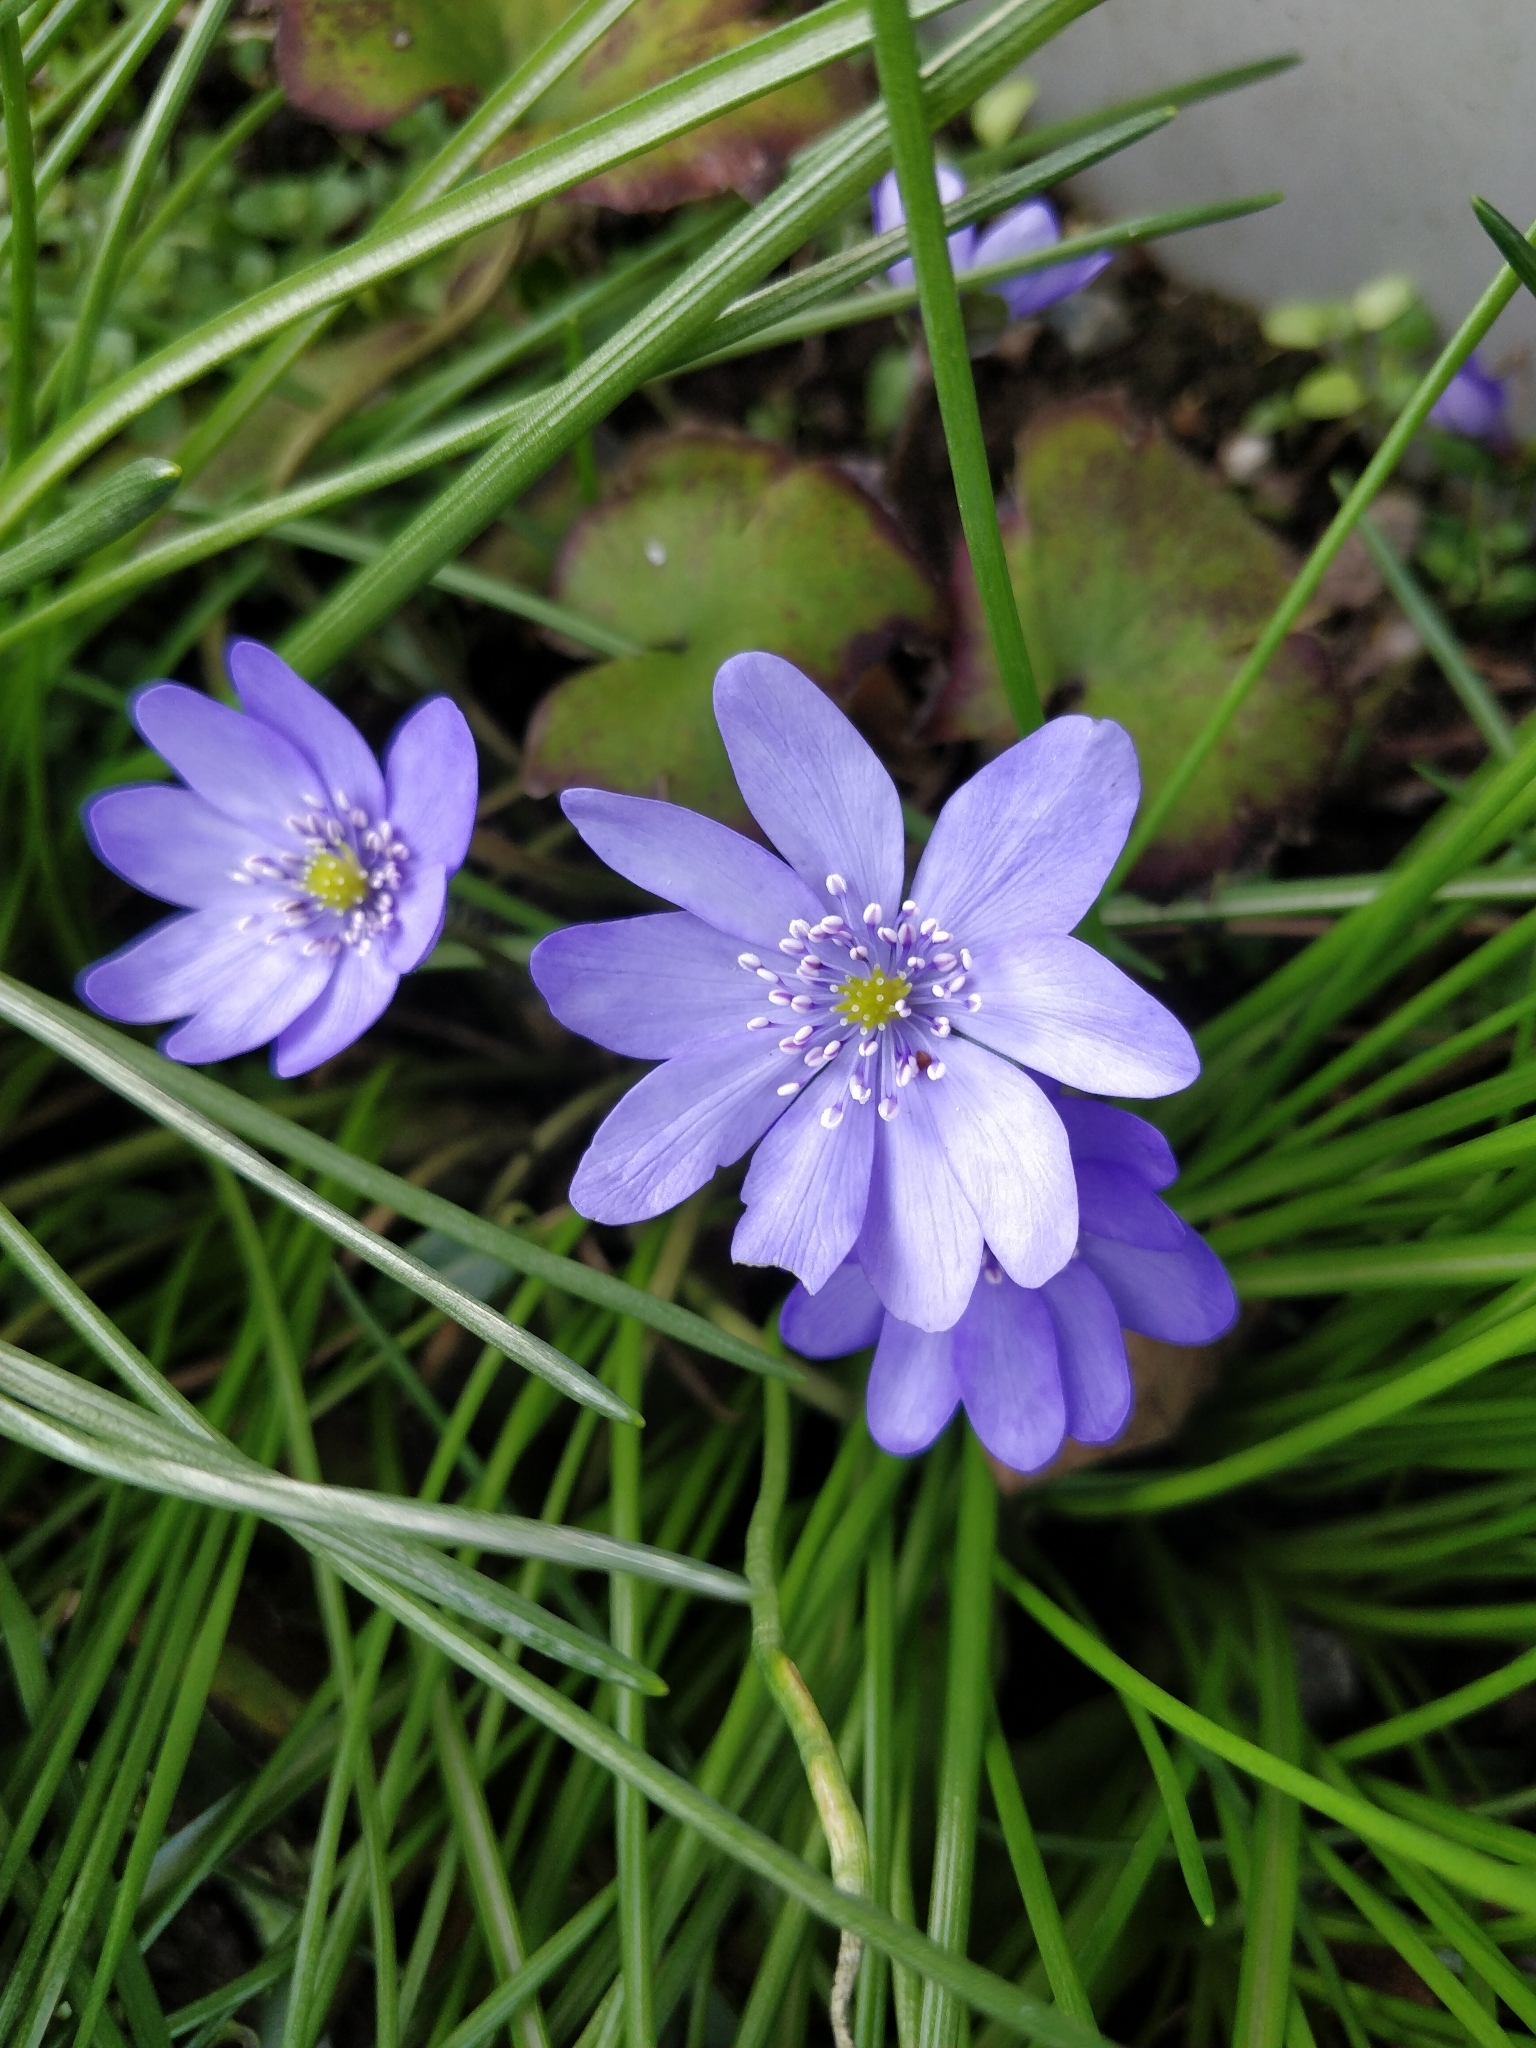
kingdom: Plantae
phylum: Tracheophyta
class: Magnoliopsida
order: Ranunculales
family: Ranunculaceae
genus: Hepatica
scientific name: Hepatica nobilis
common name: Liverleaf
